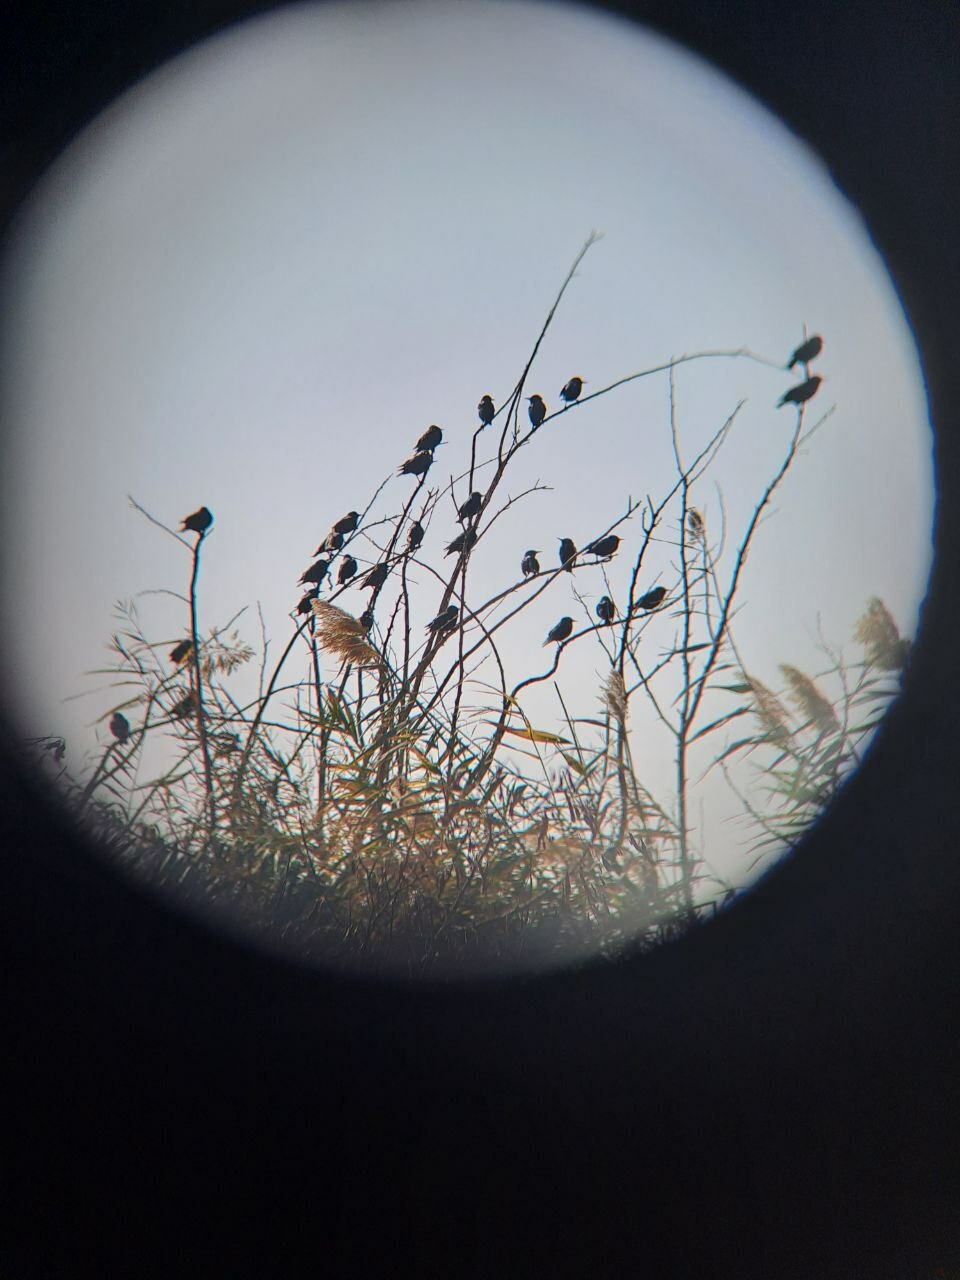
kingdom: Animalia
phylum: Chordata
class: Aves
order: Passeriformes
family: Sturnidae
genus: Sturnus
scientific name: Sturnus vulgaris
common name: Common starling
